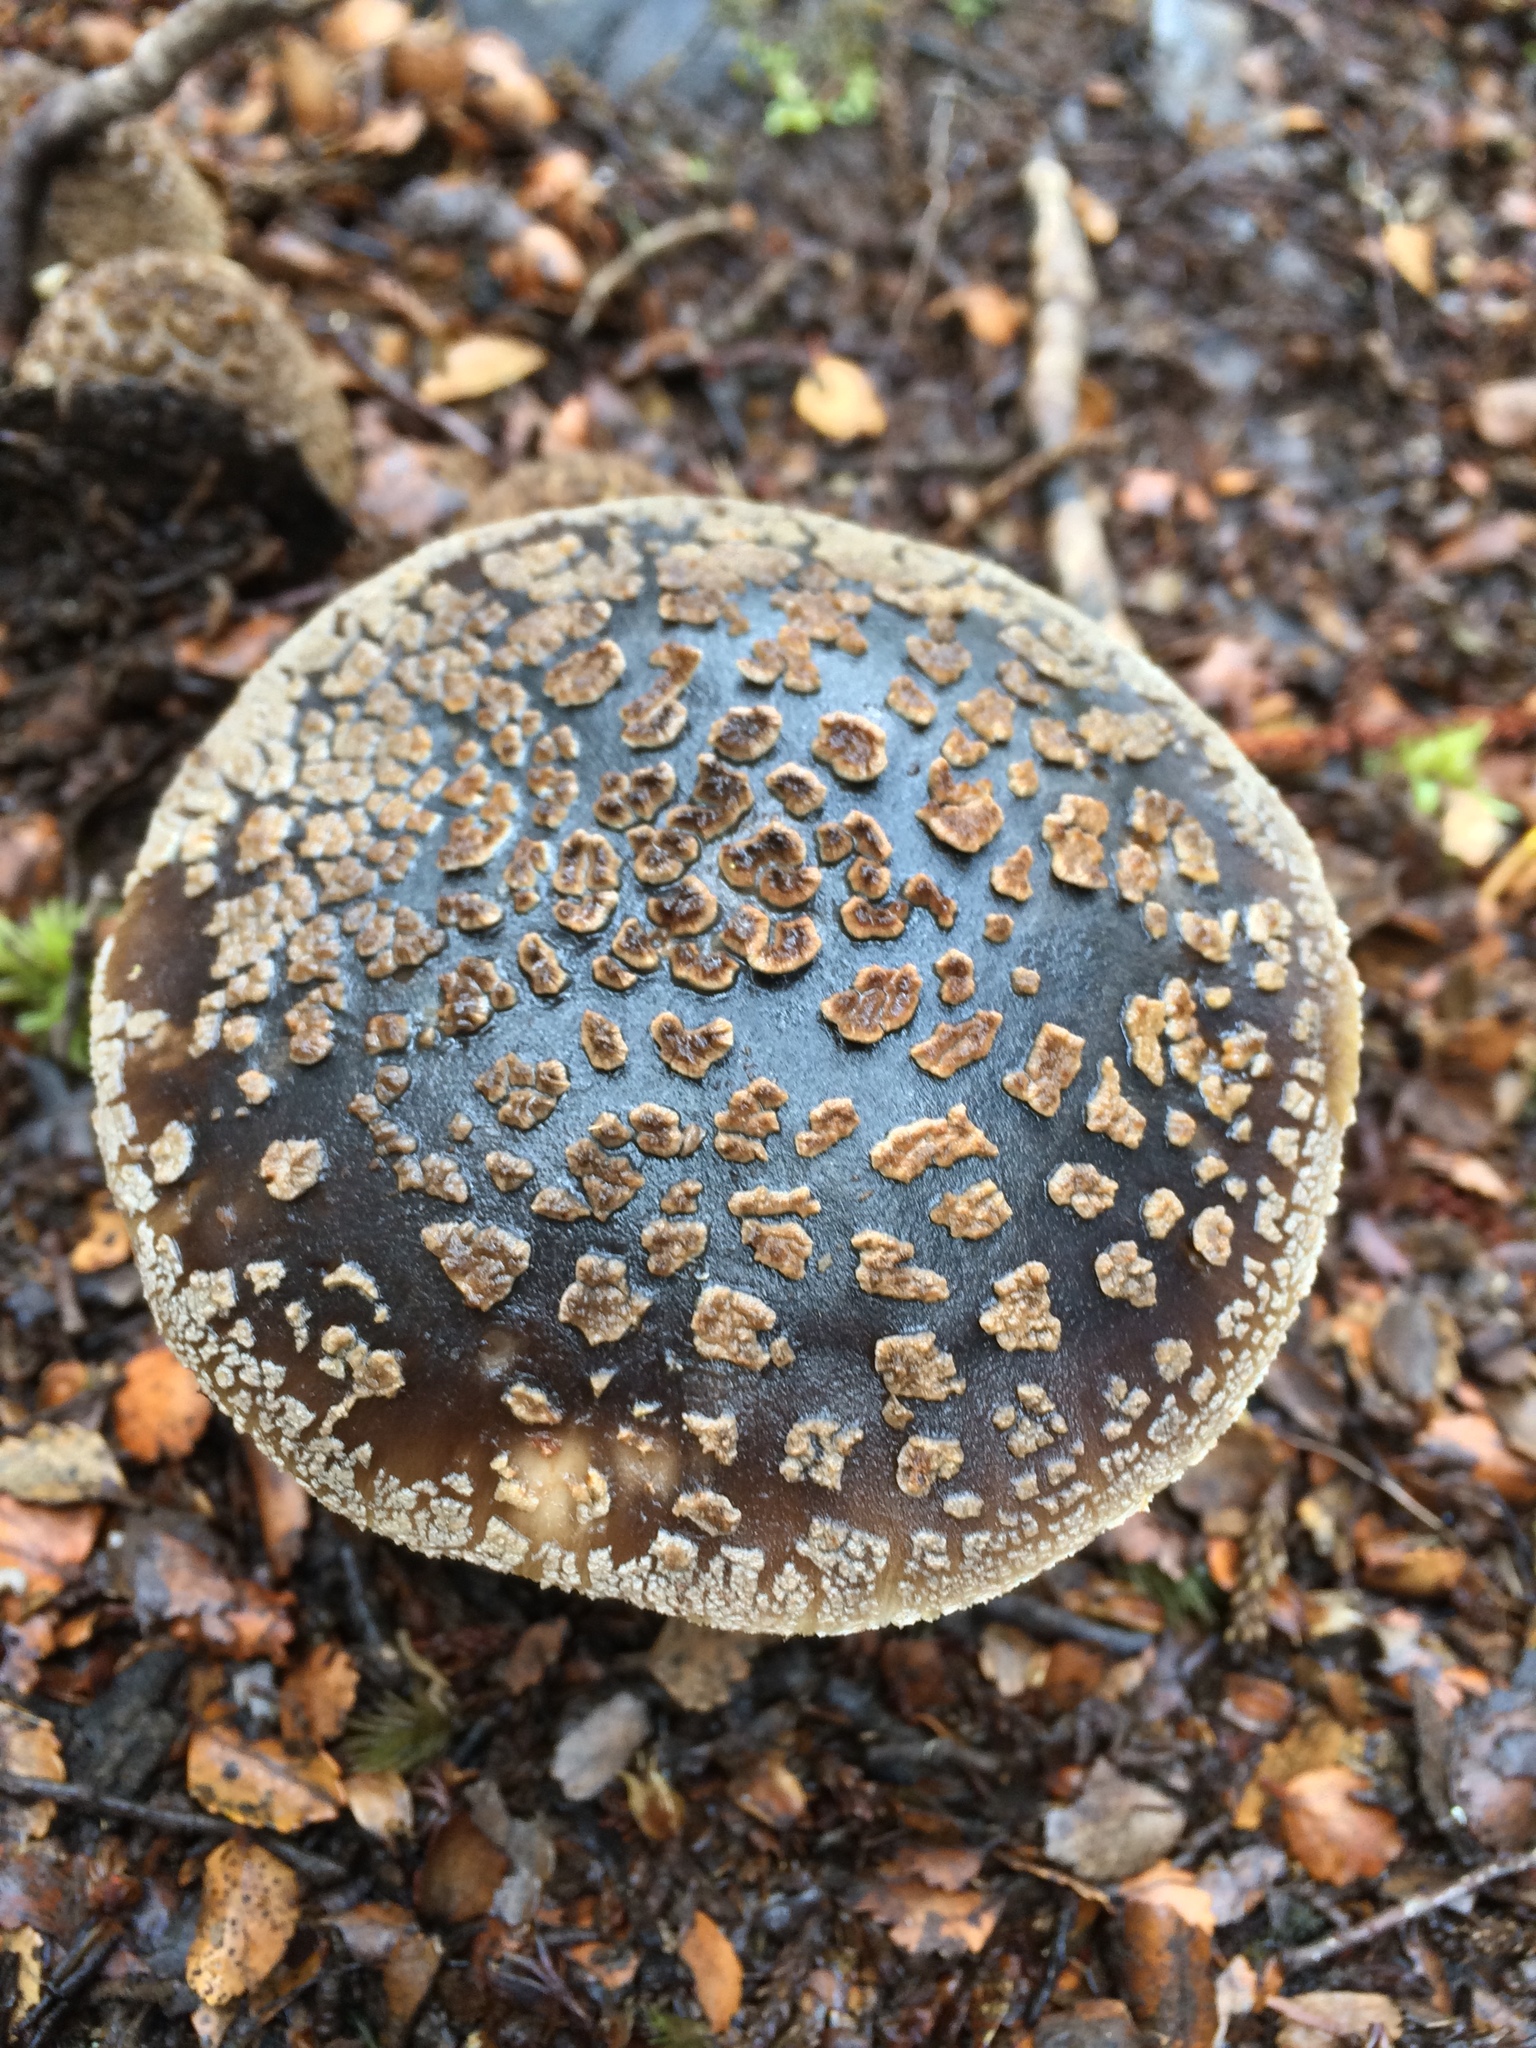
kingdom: Fungi
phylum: Basidiomycota
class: Agaricomycetes
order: Agaricales
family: Amanitaceae
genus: Amanita
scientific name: Amanita nothofagi
